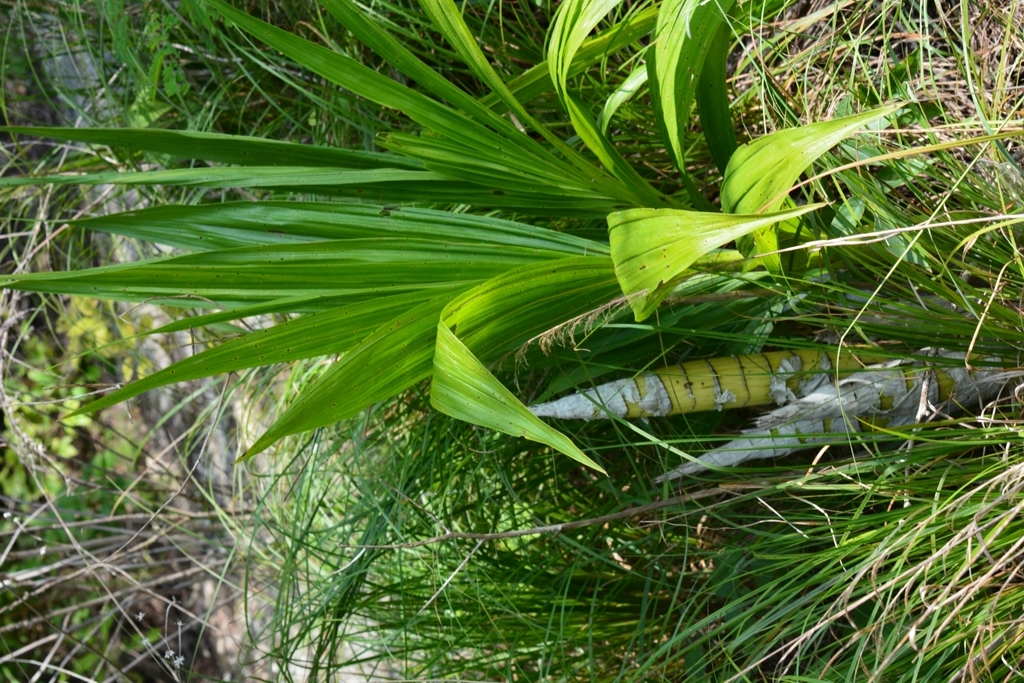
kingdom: Plantae
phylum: Tracheophyta
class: Liliopsida
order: Asparagales
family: Orchidaceae
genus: Cyrtopodium
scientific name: Cyrtopodium macrobulbon
